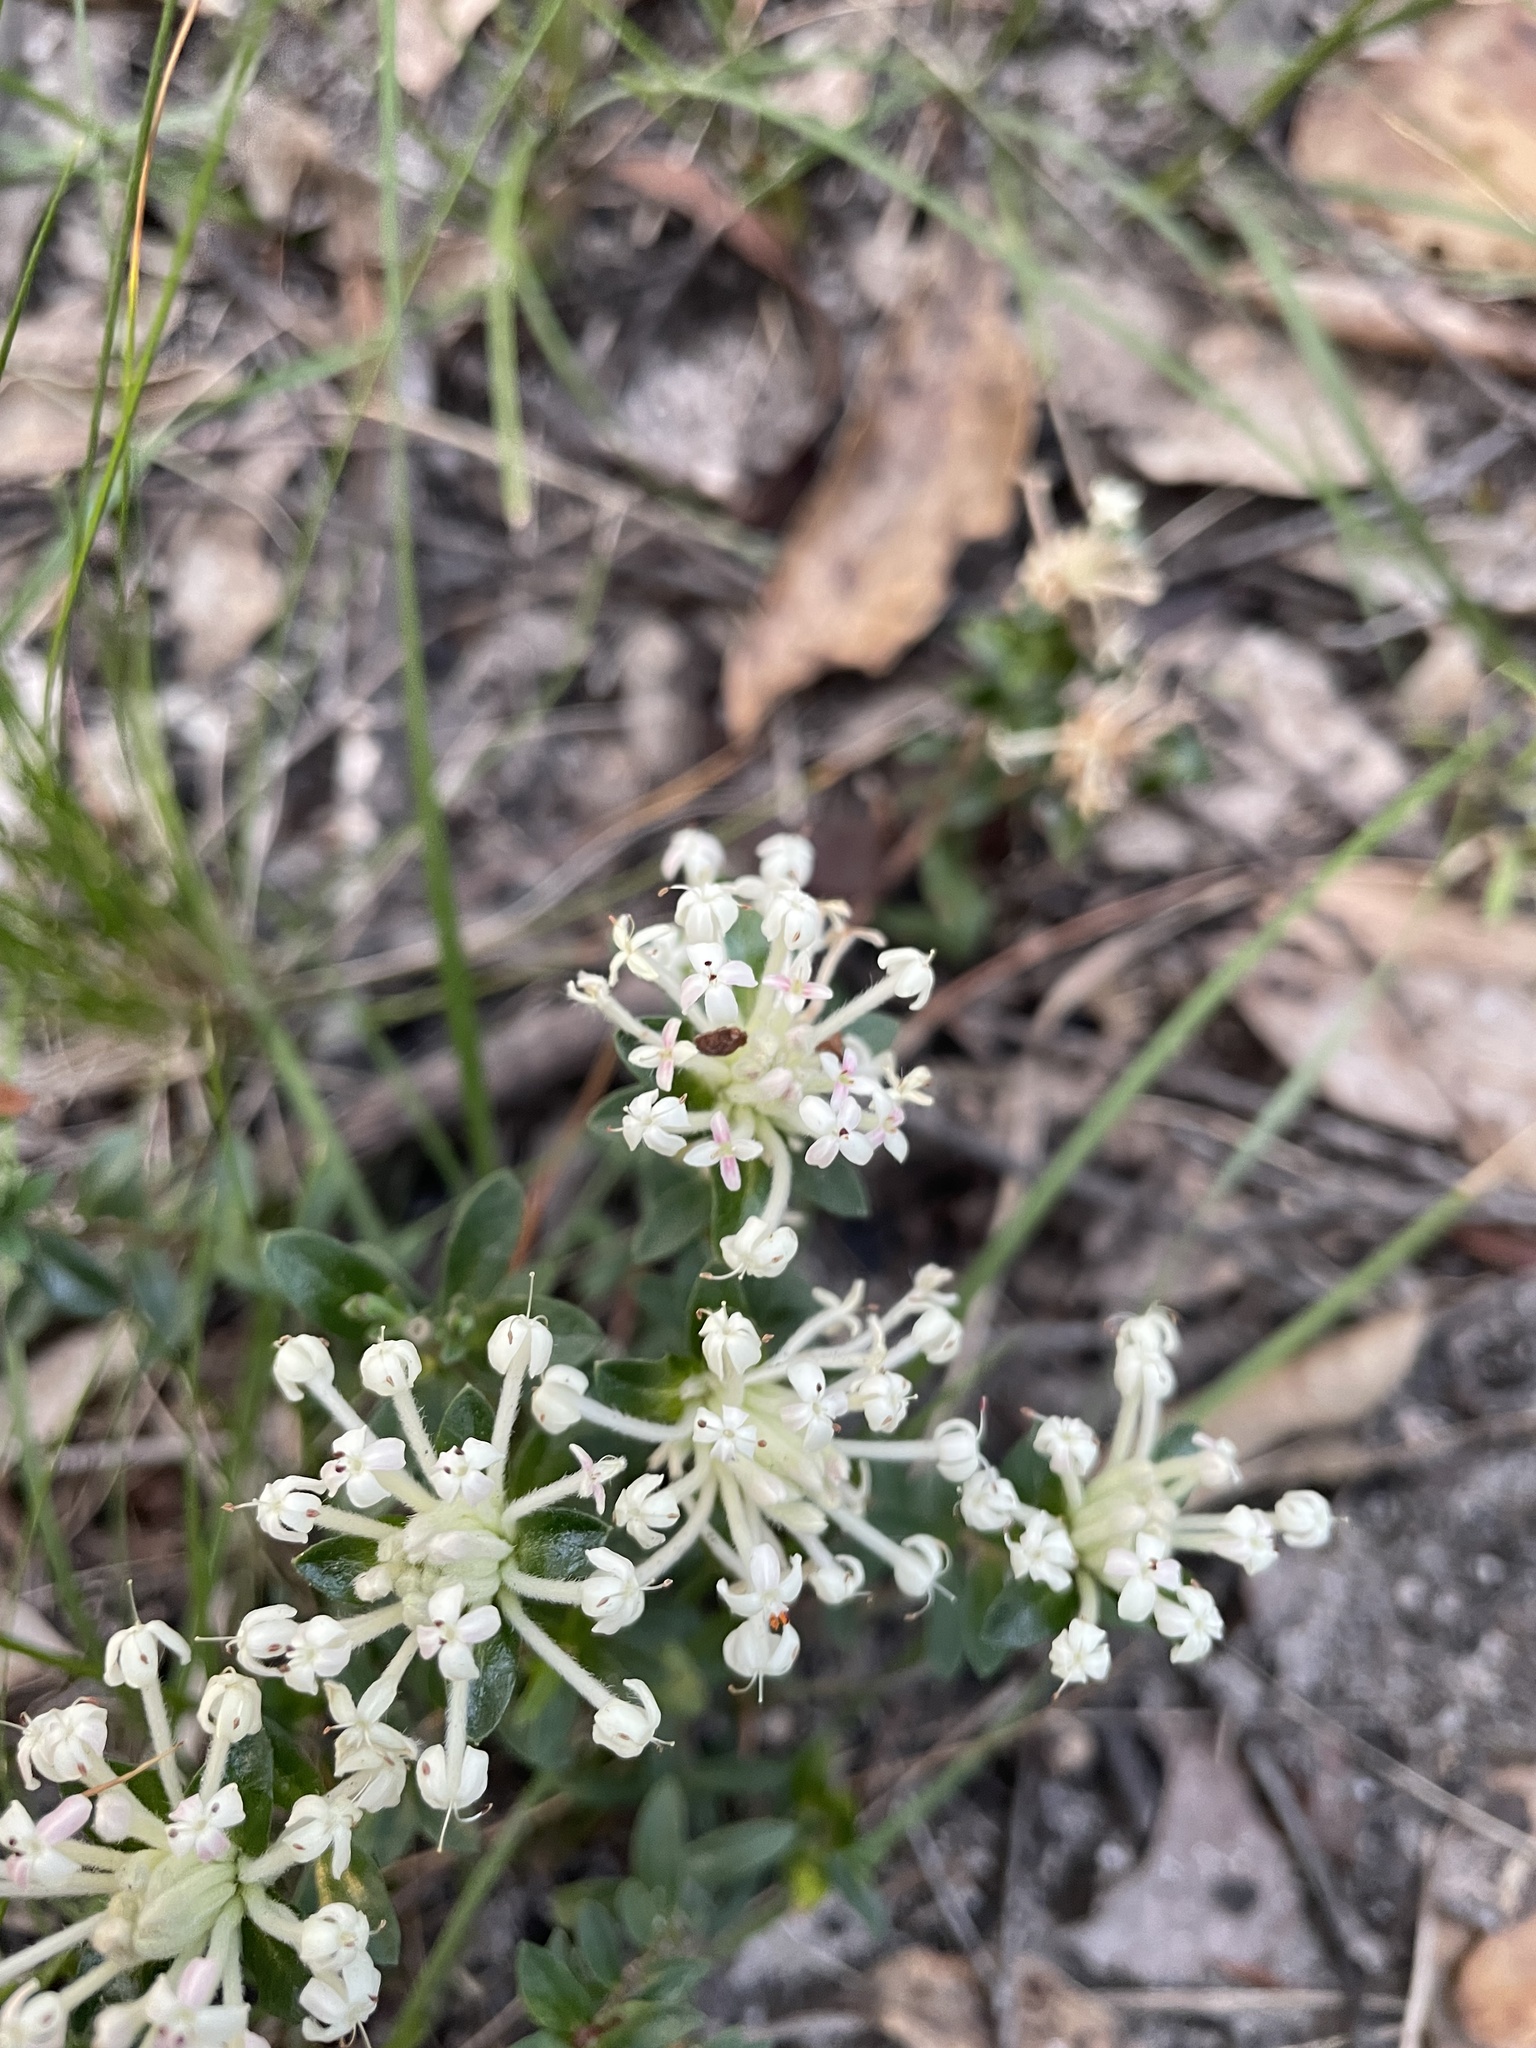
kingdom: Plantae
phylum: Tracheophyta
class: Magnoliopsida
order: Malvales
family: Thymelaeaceae
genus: Pimelea
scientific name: Pimelea humilis
